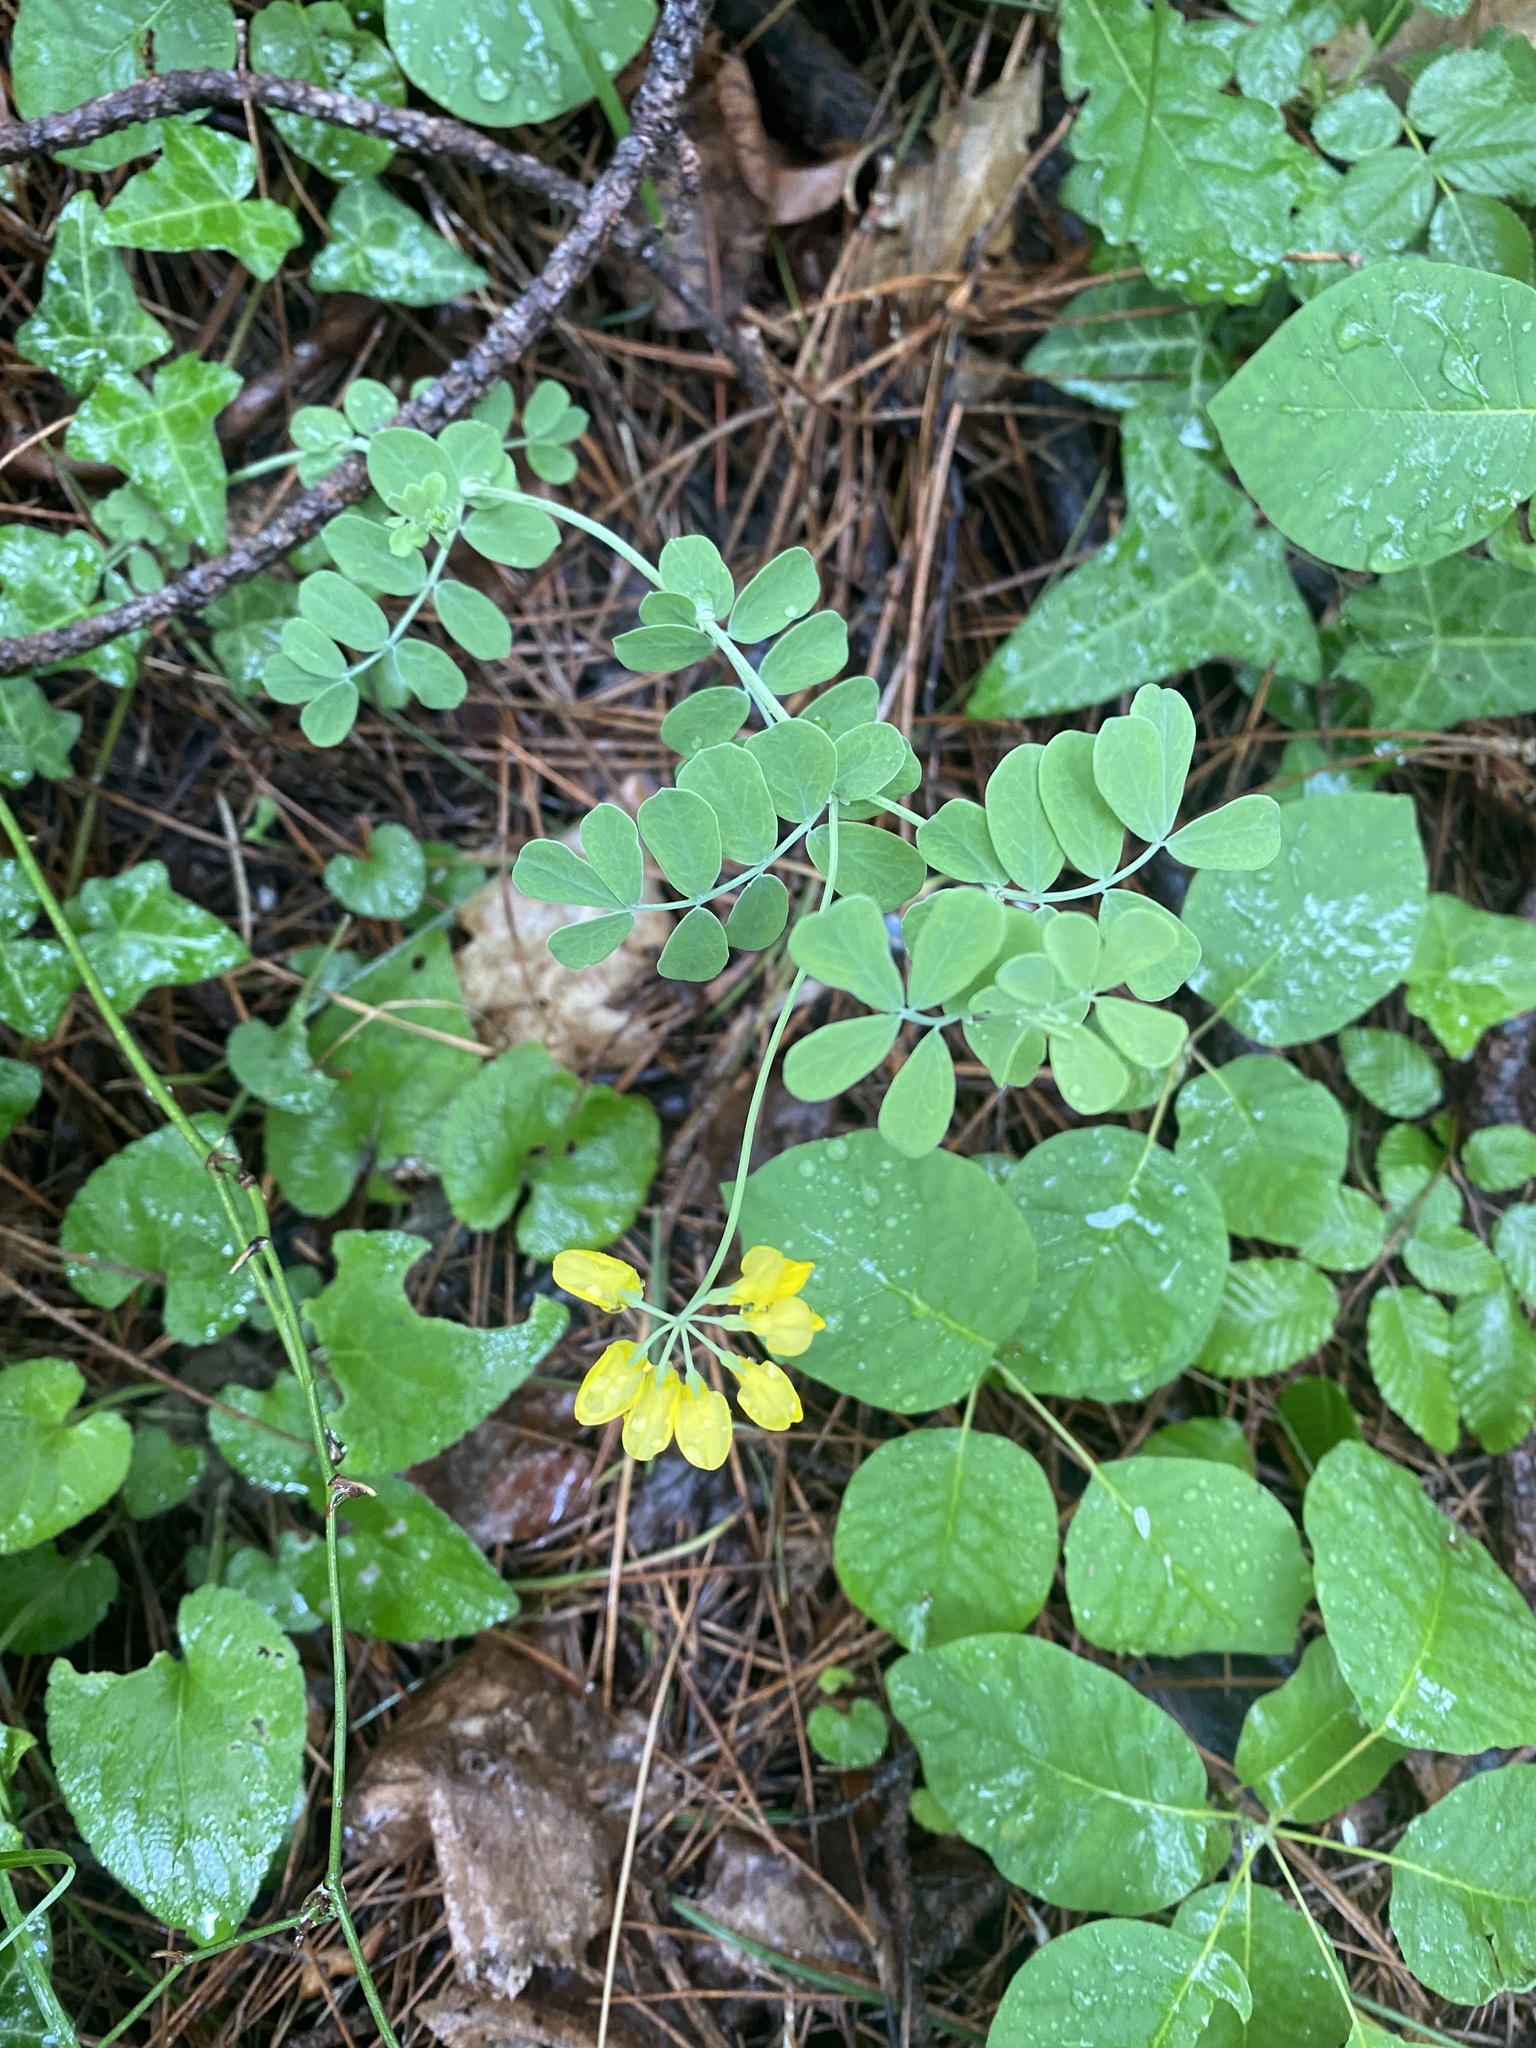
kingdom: Plantae
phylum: Tracheophyta
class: Magnoliopsida
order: Fabales
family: Fabaceae
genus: Coronilla
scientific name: Coronilla coronata
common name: Scorpion-vetch
